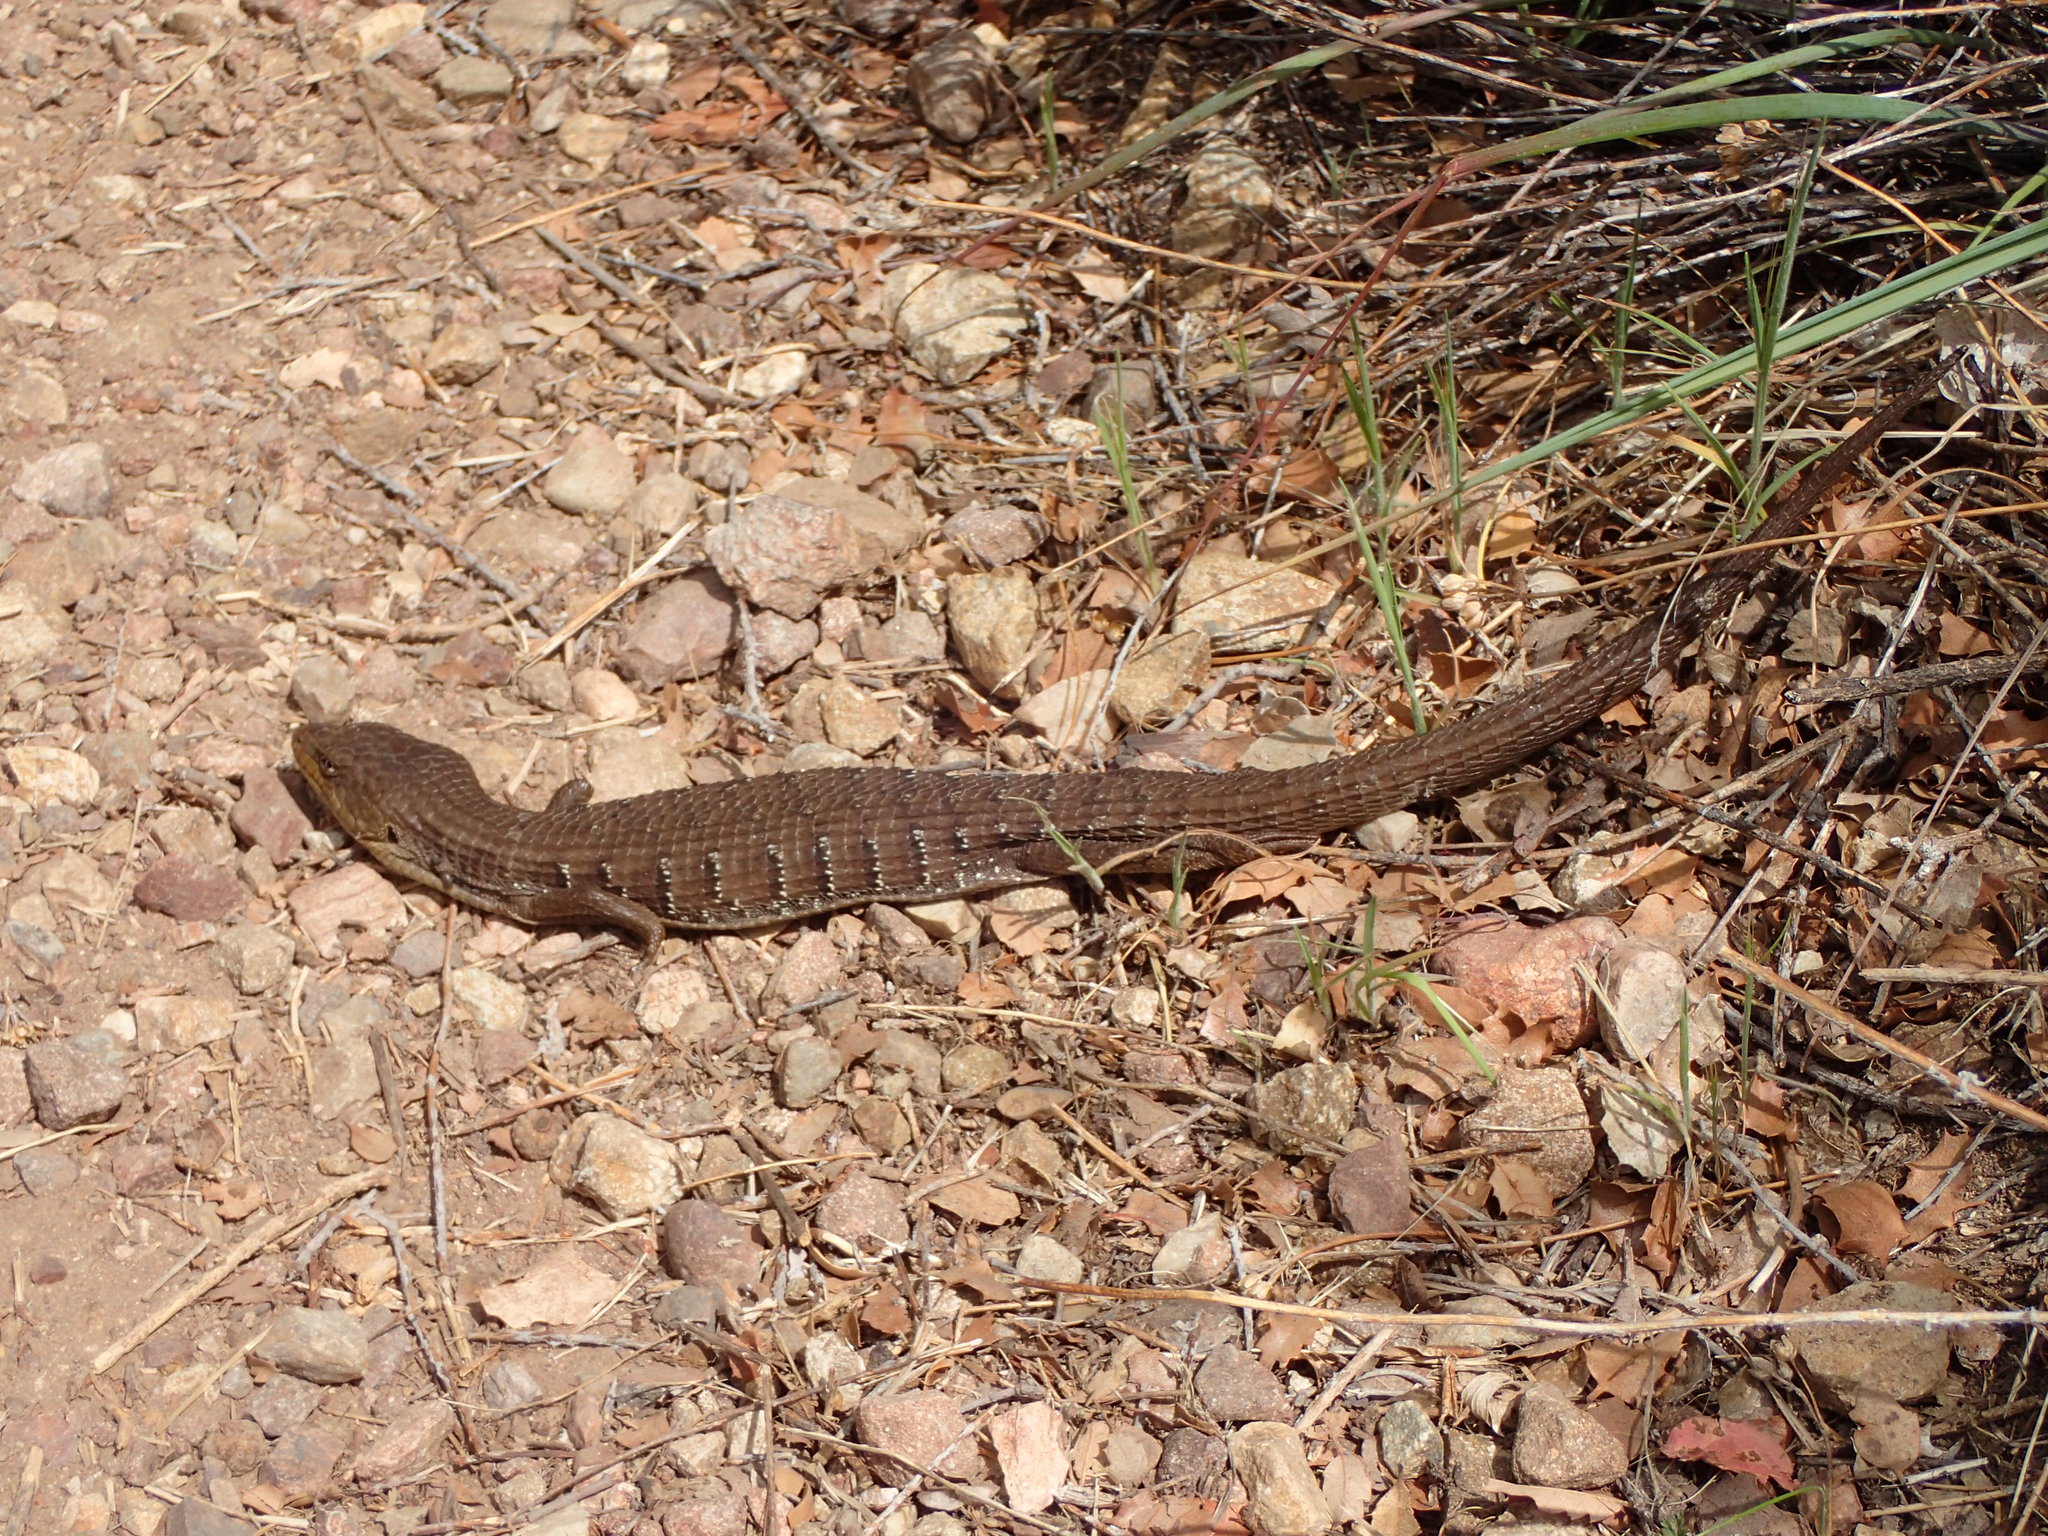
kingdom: Animalia
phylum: Chordata
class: Squamata
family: Anguidae
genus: Elgaria
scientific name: Elgaria multicarinata
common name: Southern alligator lizard
